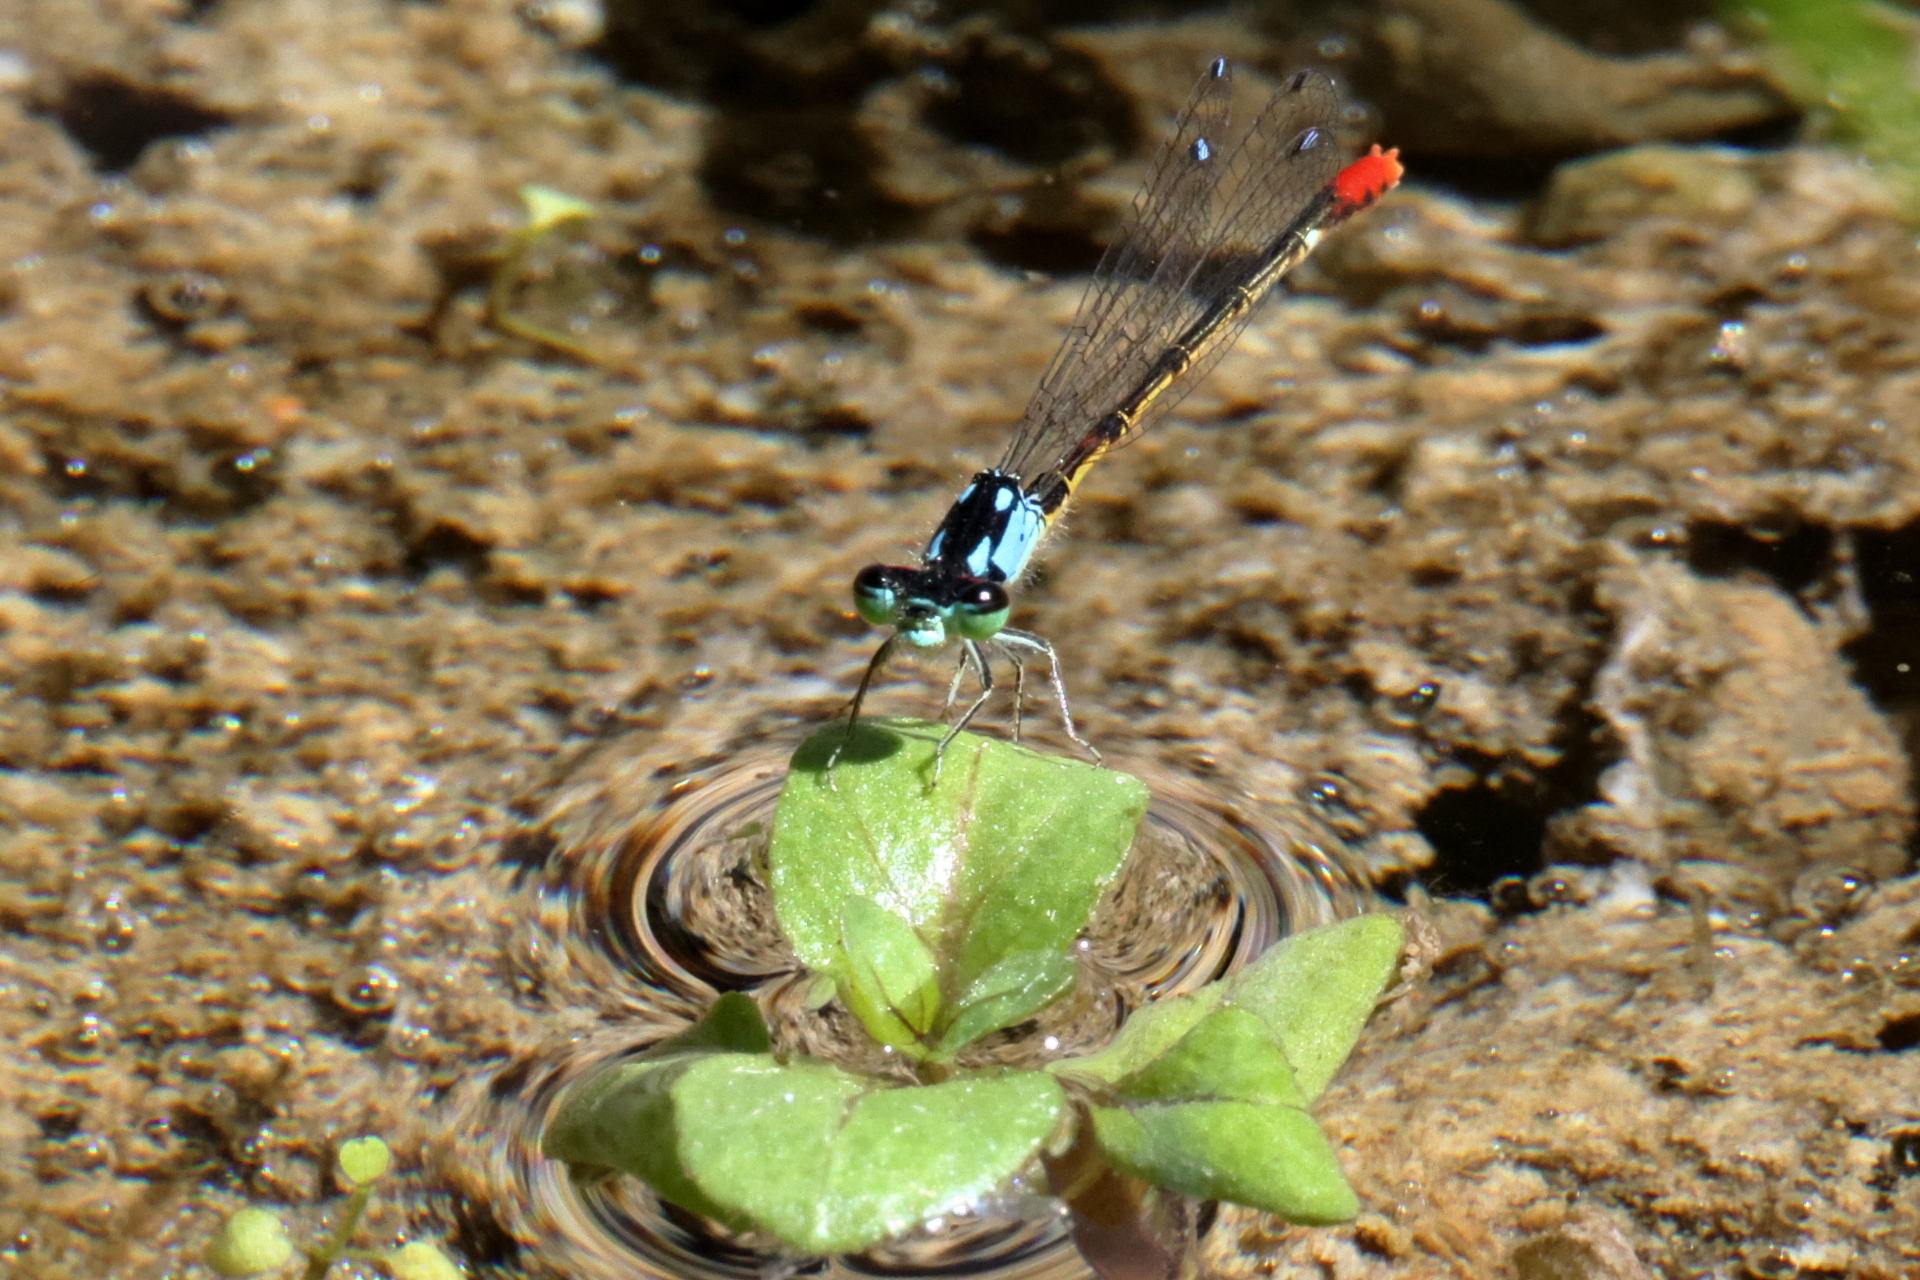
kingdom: Animalia
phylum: Arthropoda
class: Insecta
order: Odonata
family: Coenagrionidae
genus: Hesperagrion
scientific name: Hesperagrion heterodoxum
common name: Painted damsel
